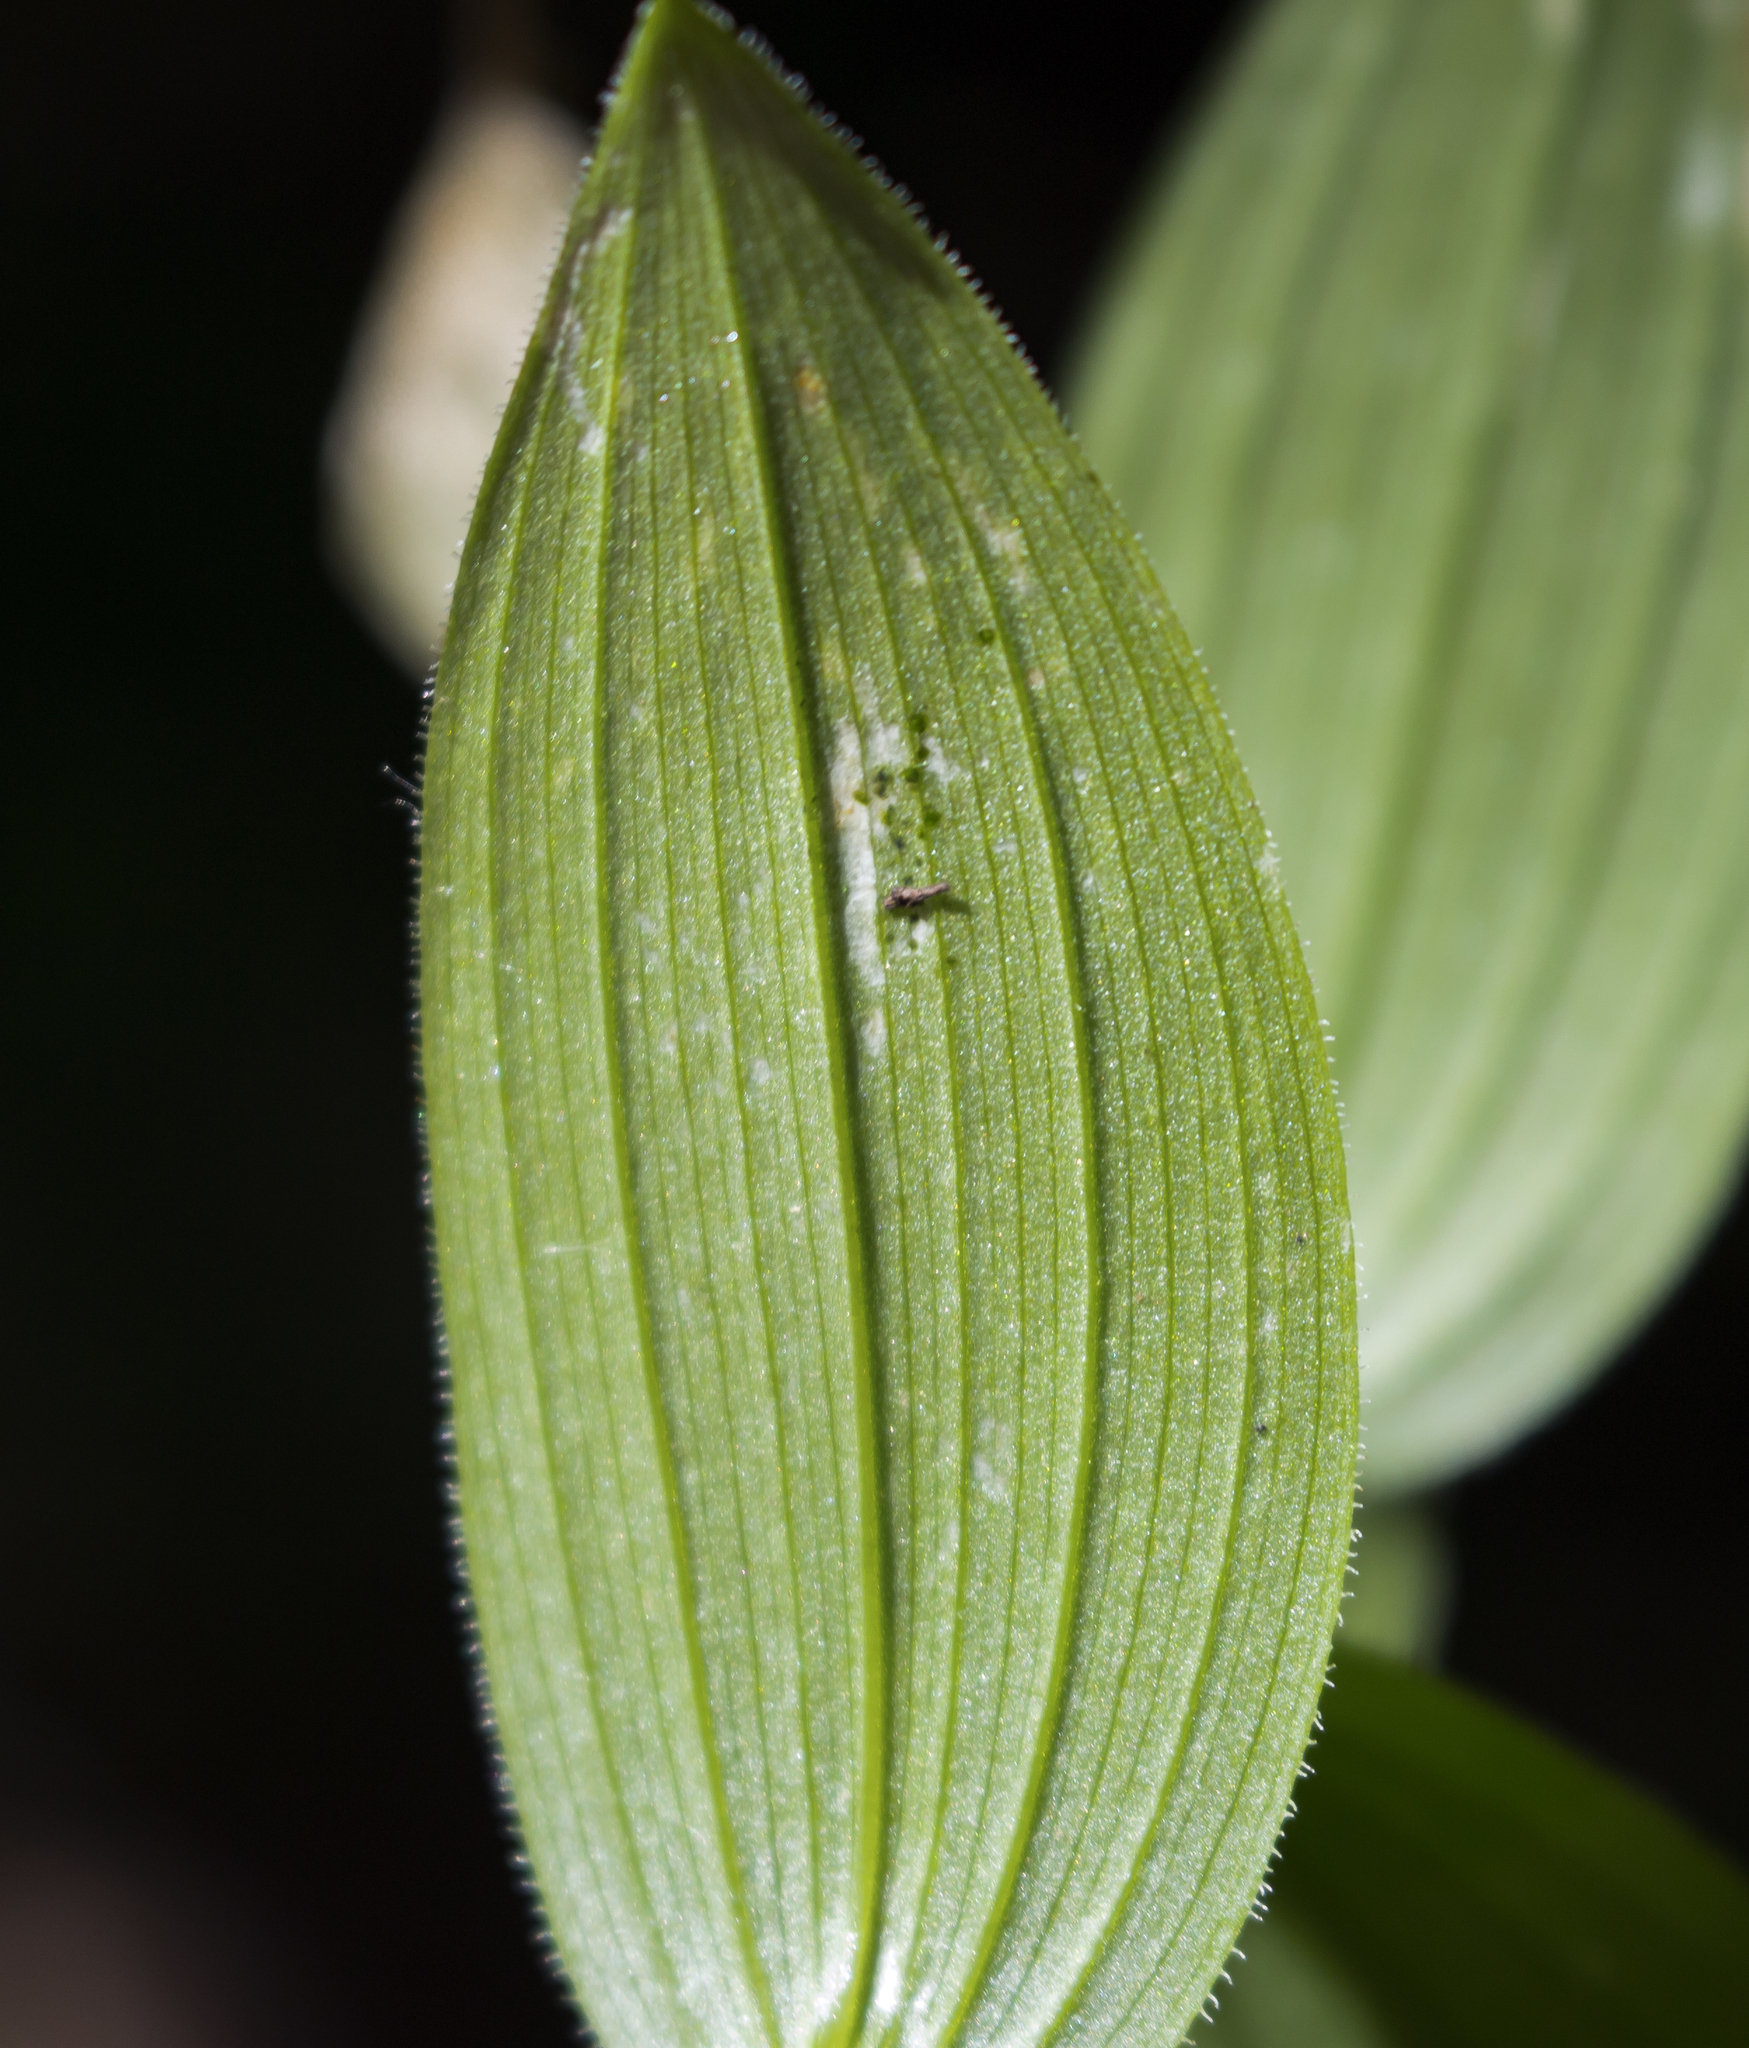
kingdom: Plantae
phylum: Tracheophyta
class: Liliopsida
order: Liliales
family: Liliaceae
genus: Streptopus
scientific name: Streptopus lanceolatus
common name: Rose mandarin
